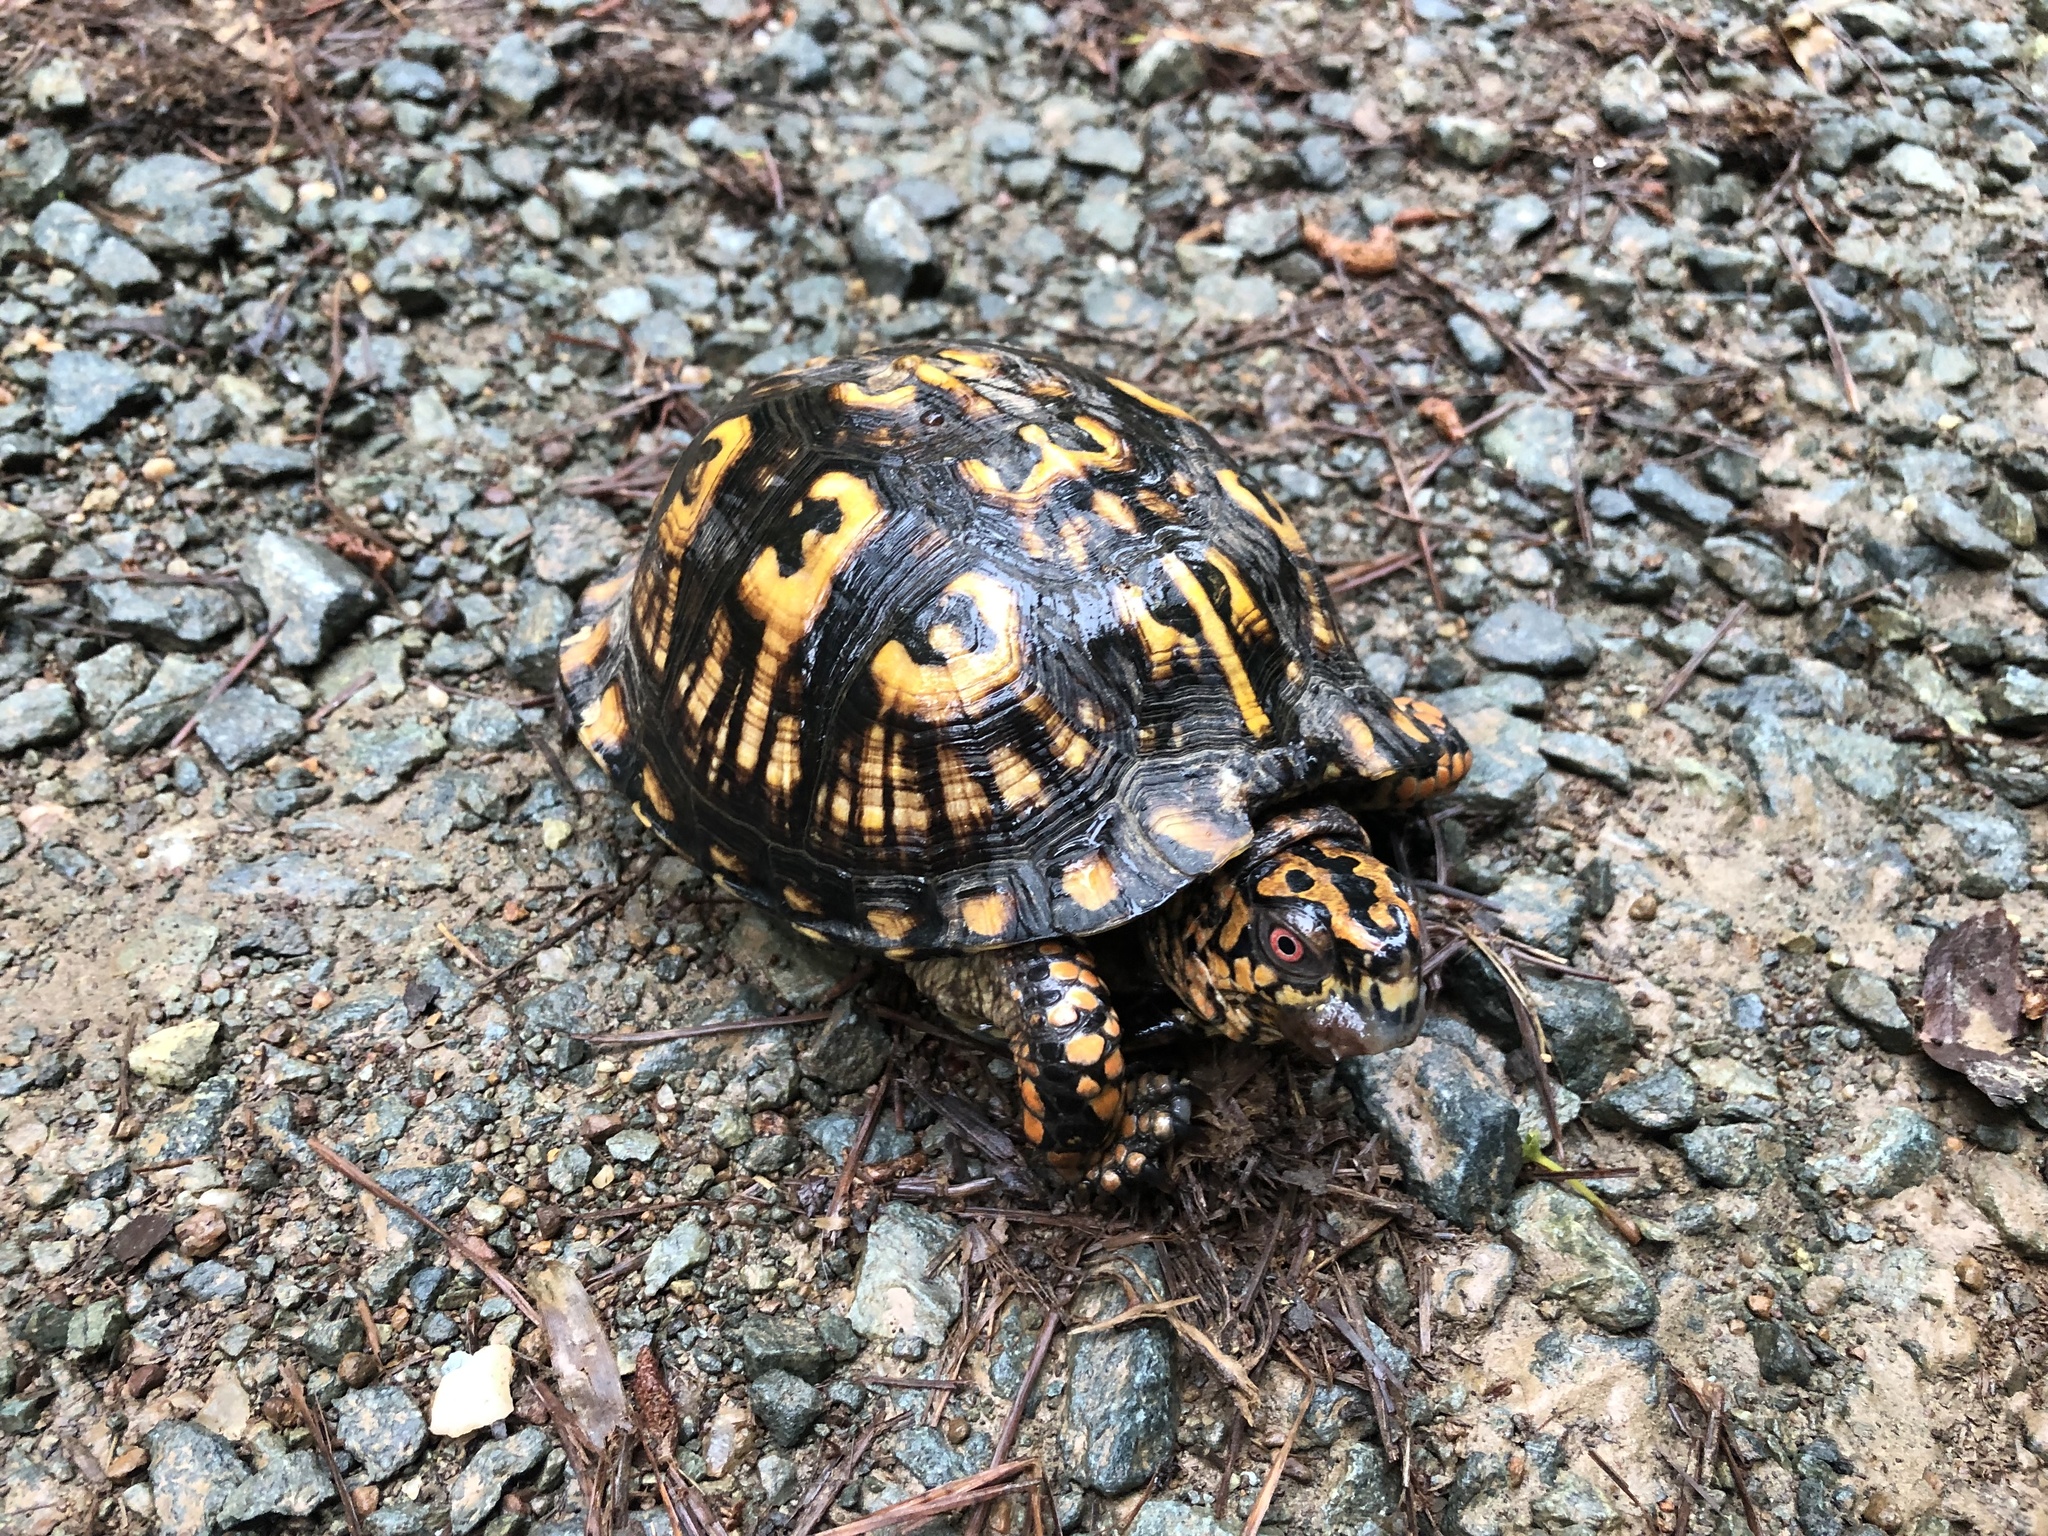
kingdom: Animalia
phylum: Chordata
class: Testudines
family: Emydidae
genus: Terrapene
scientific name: Terrapene carolina
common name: Common box turtle
